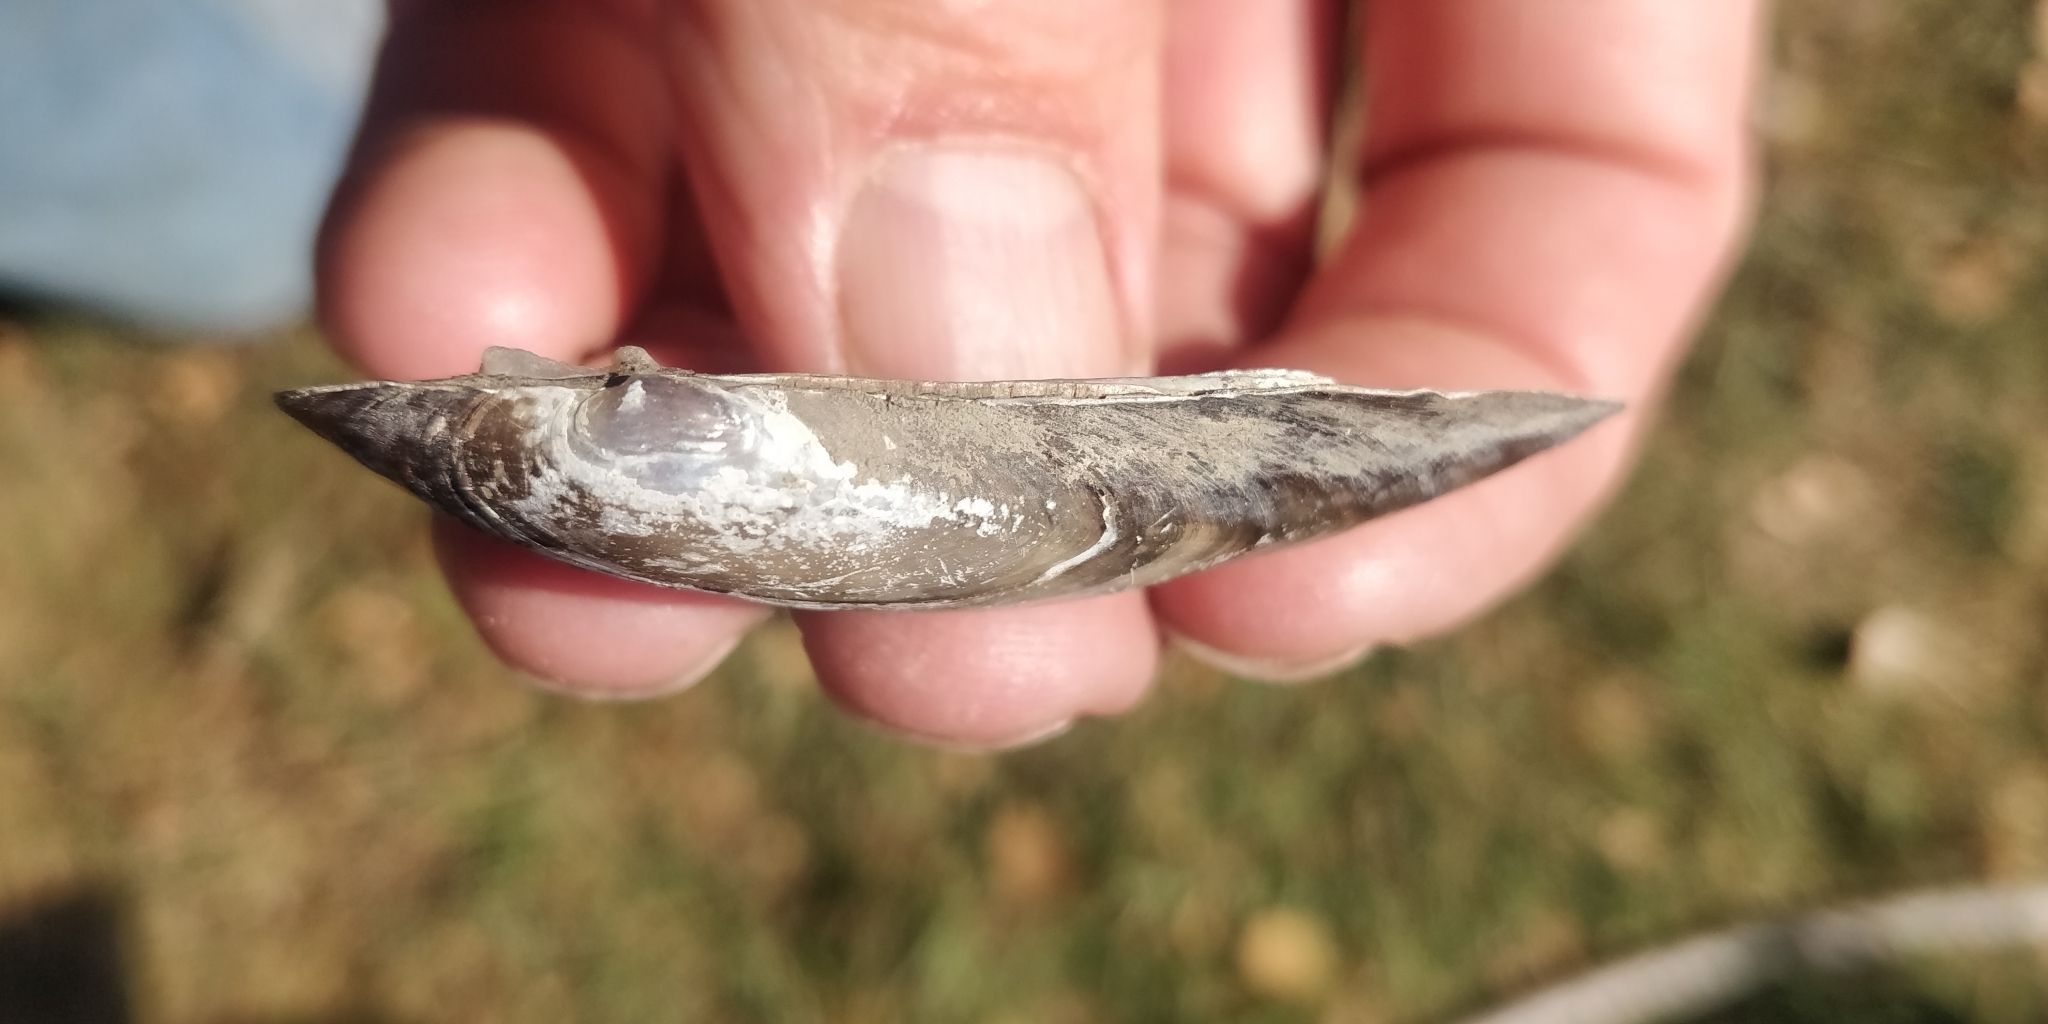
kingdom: Animalia
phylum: Mollusca
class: Bivalvia
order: Unionida
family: Unionidae
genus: Lampsilis
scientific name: Lampsilis teres
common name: Yellow sandshell
